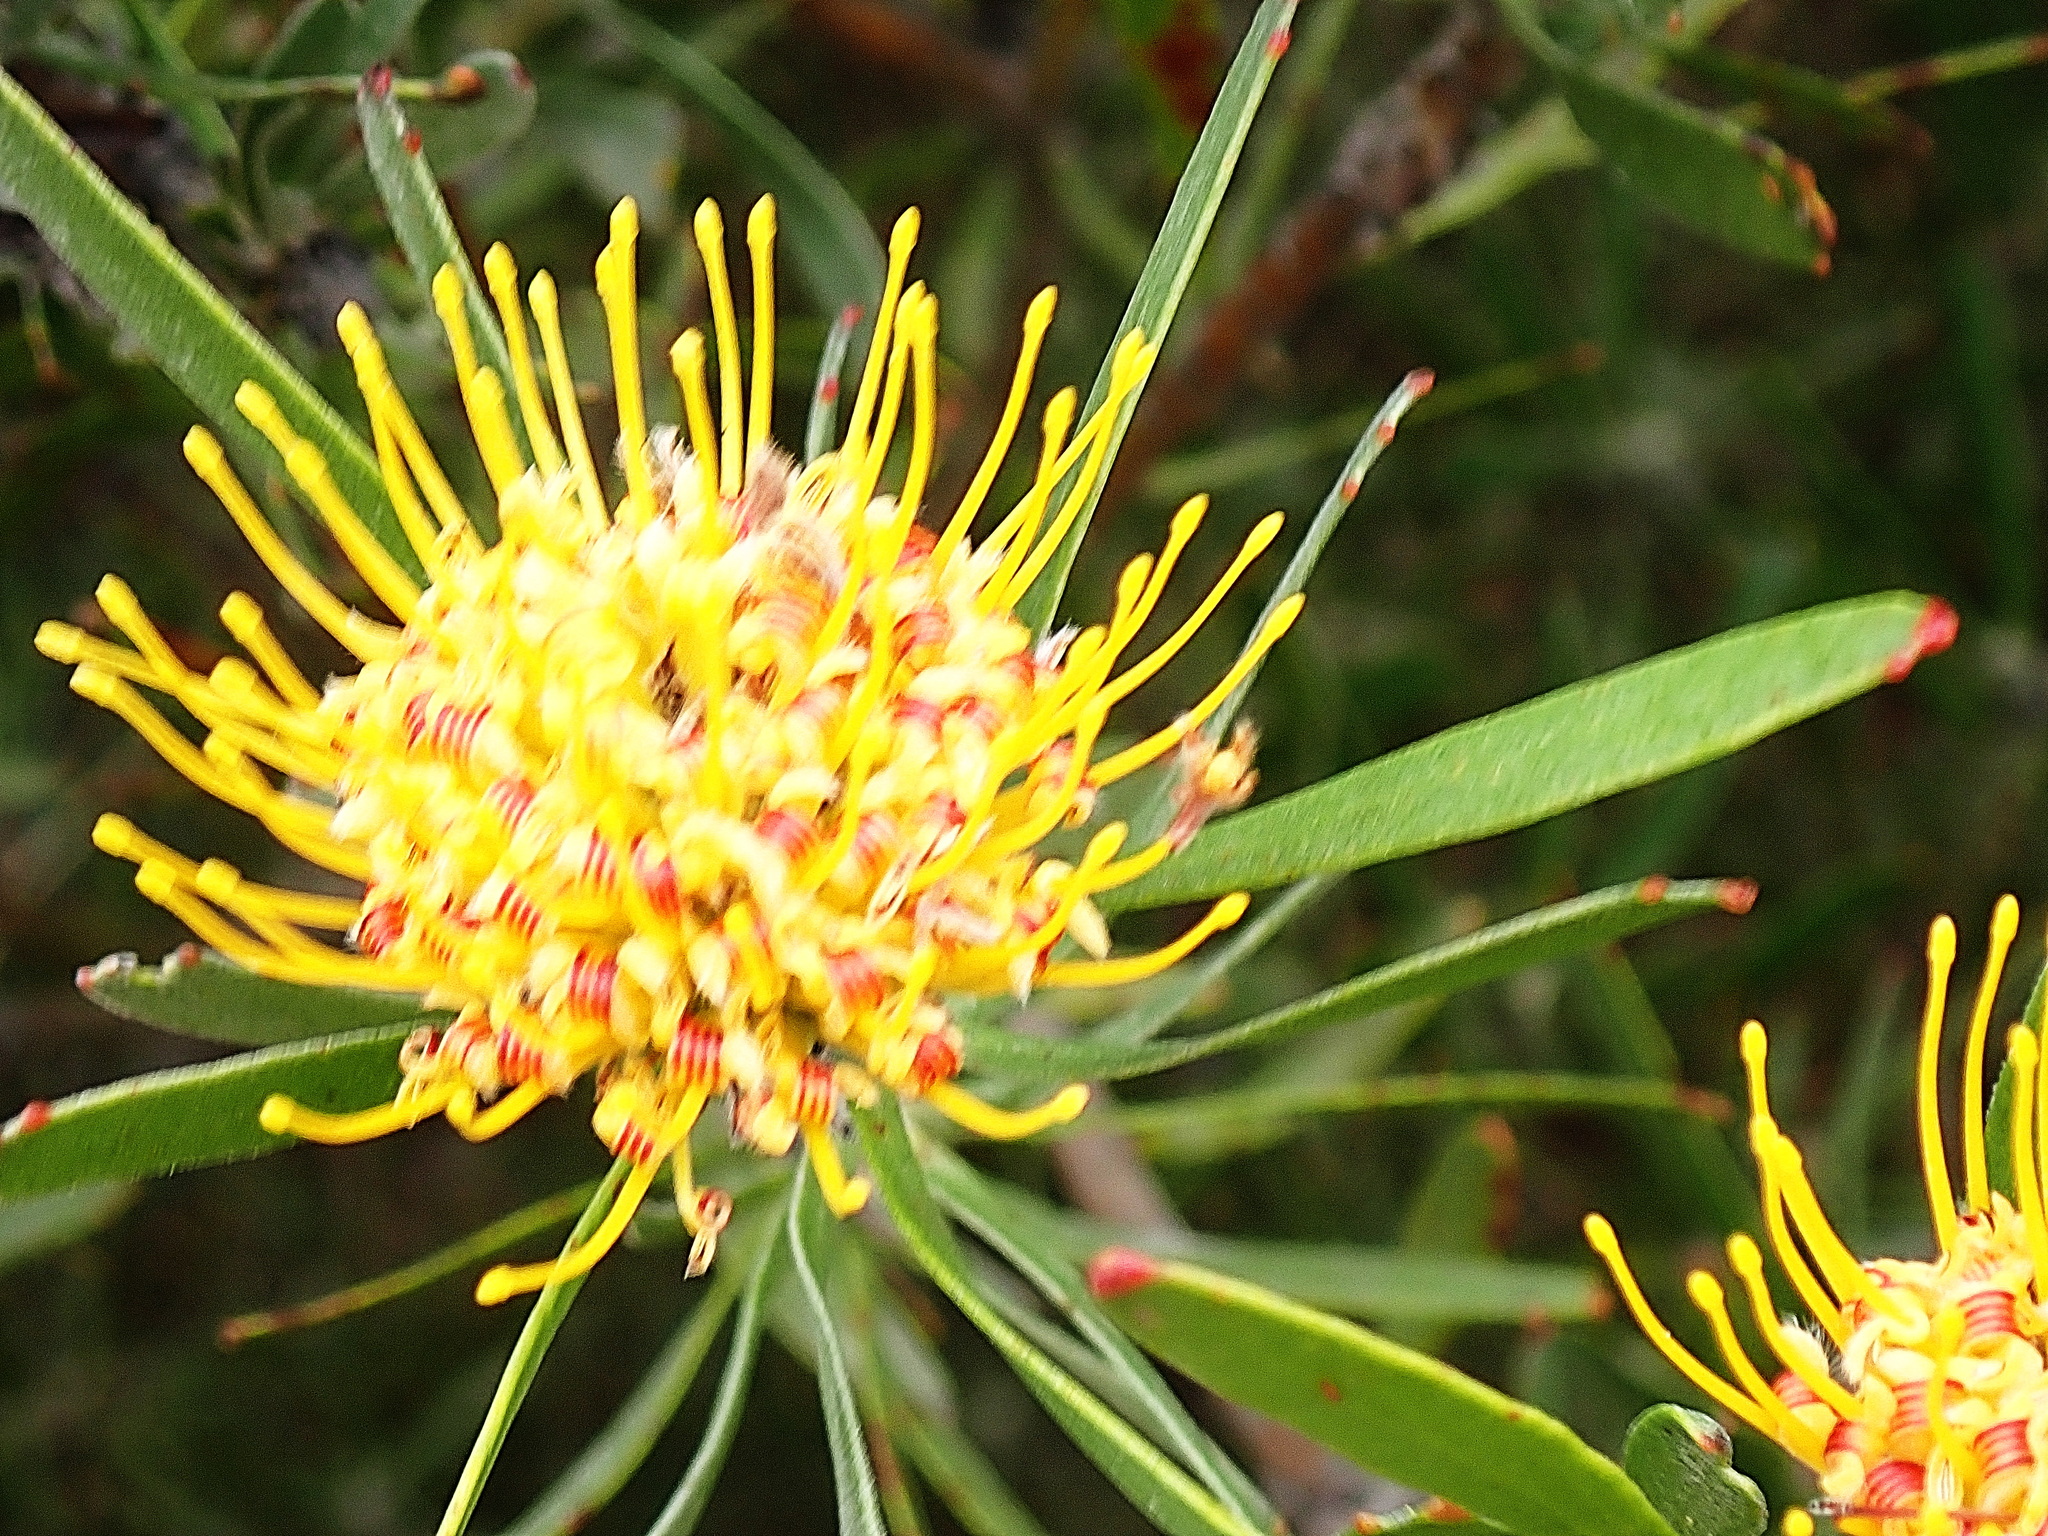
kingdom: Plantae
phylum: Tracheophyta
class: Magnoliopsida
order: Proteales
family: Proteaceae
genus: Leucospermum
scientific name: Leucospermum muirii
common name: Albertinia pincushion
